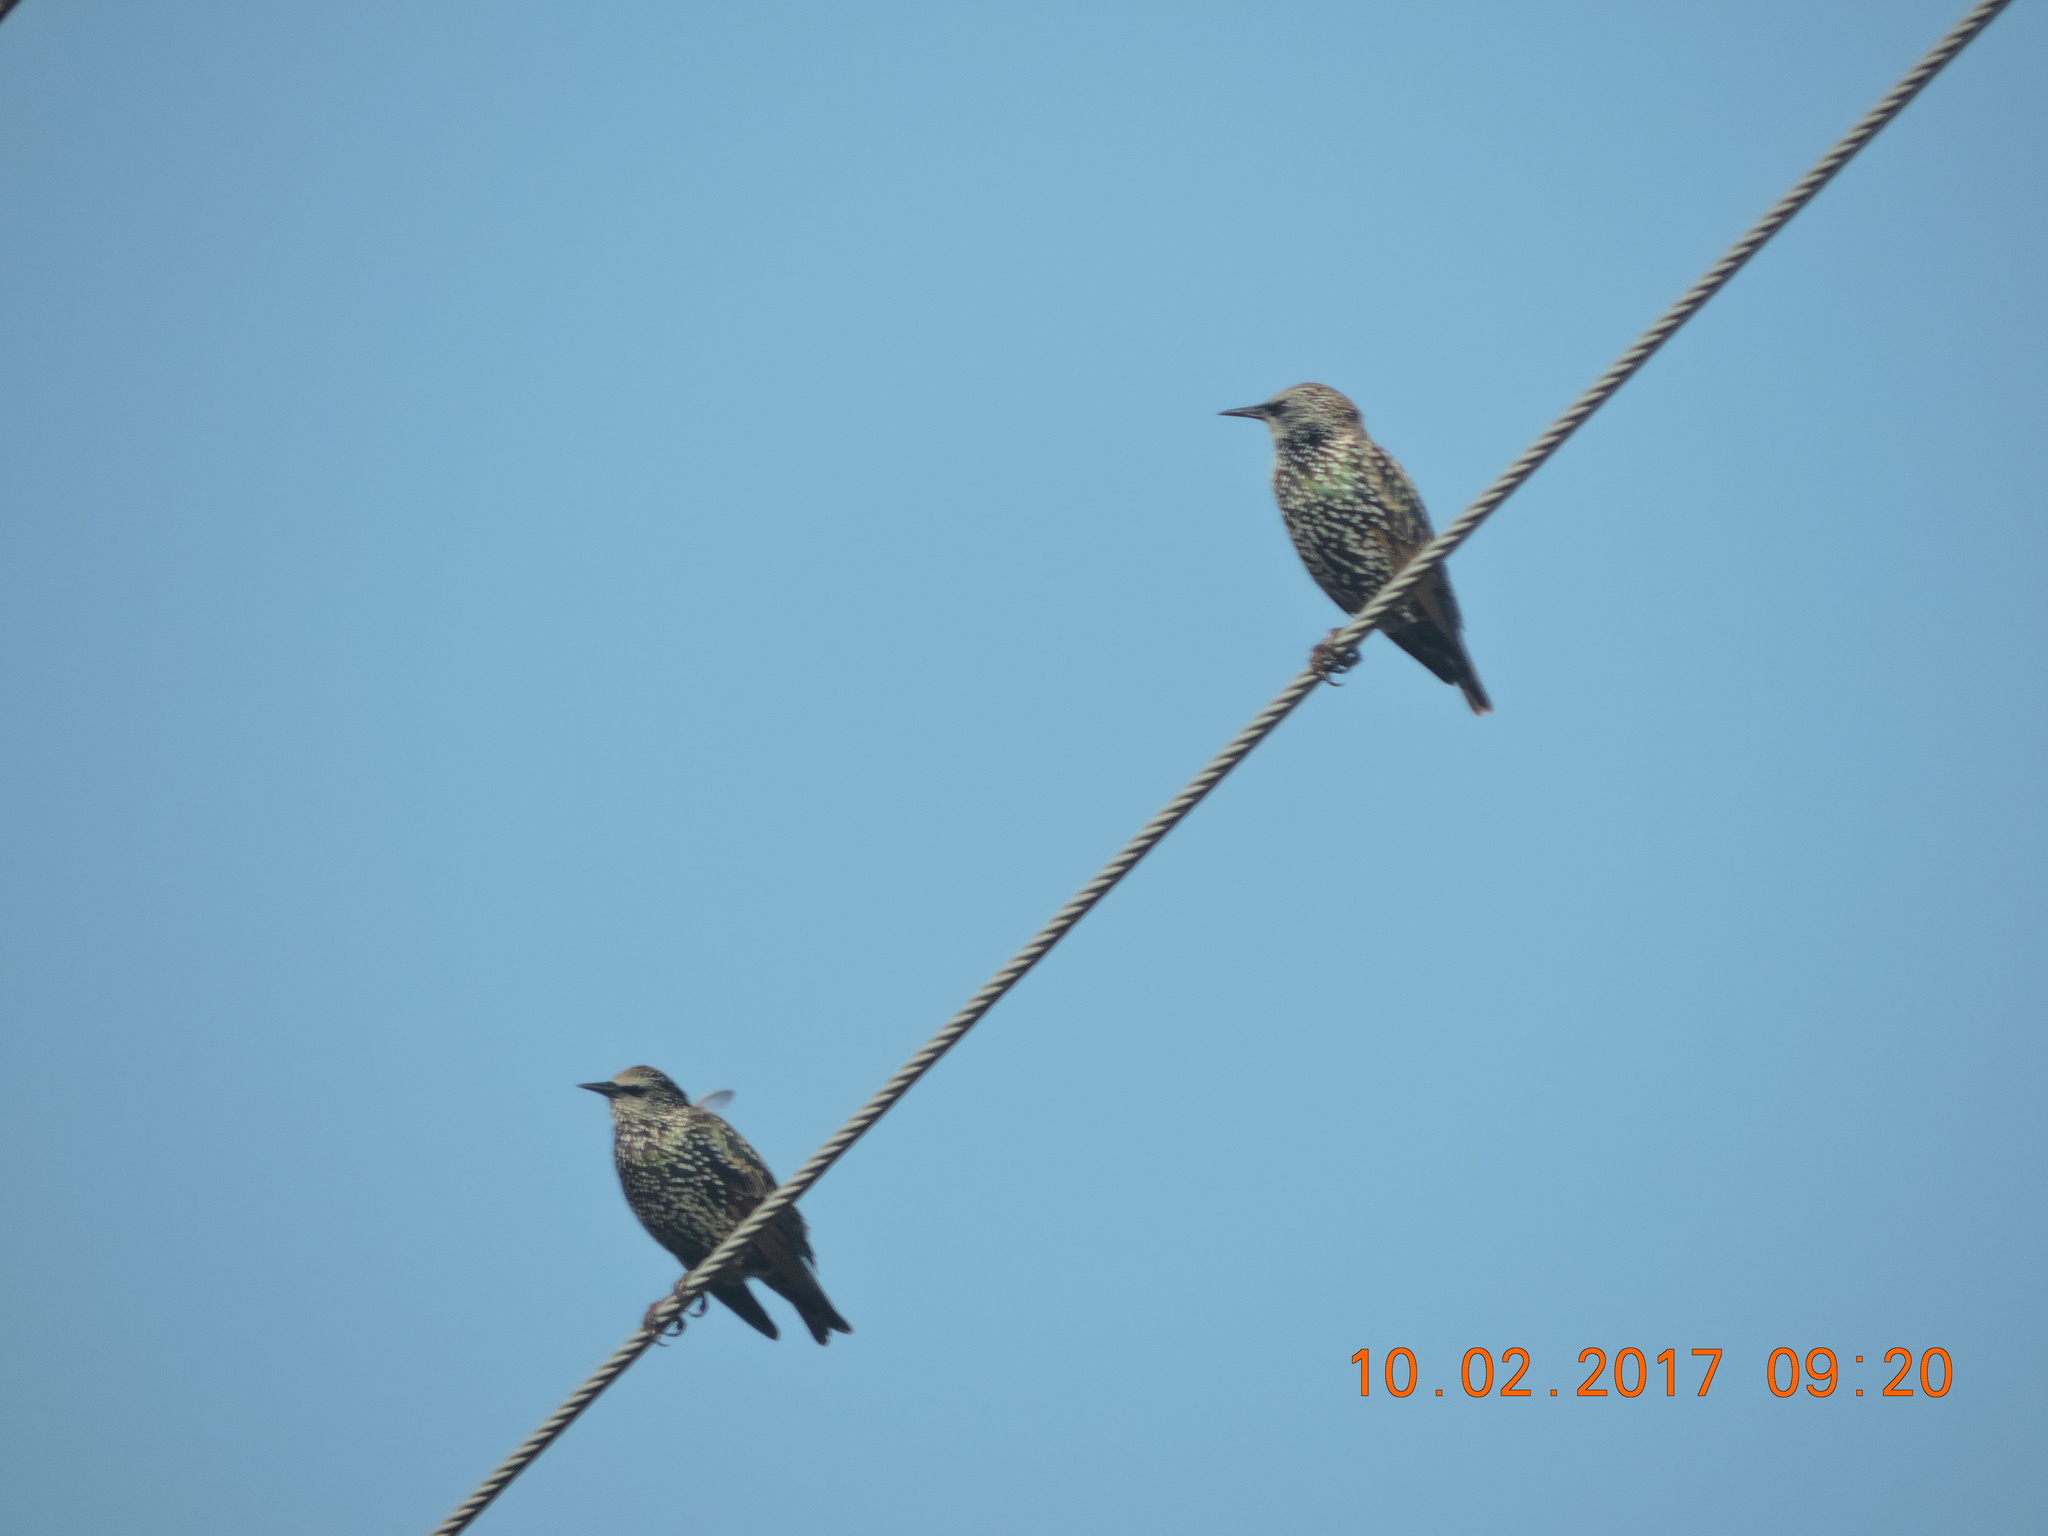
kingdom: Animalia
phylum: Chordata
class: Aves
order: Passeriformes
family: Sturnidae
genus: Sturnus
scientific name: Sturnus vulgaris
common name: Common starling
